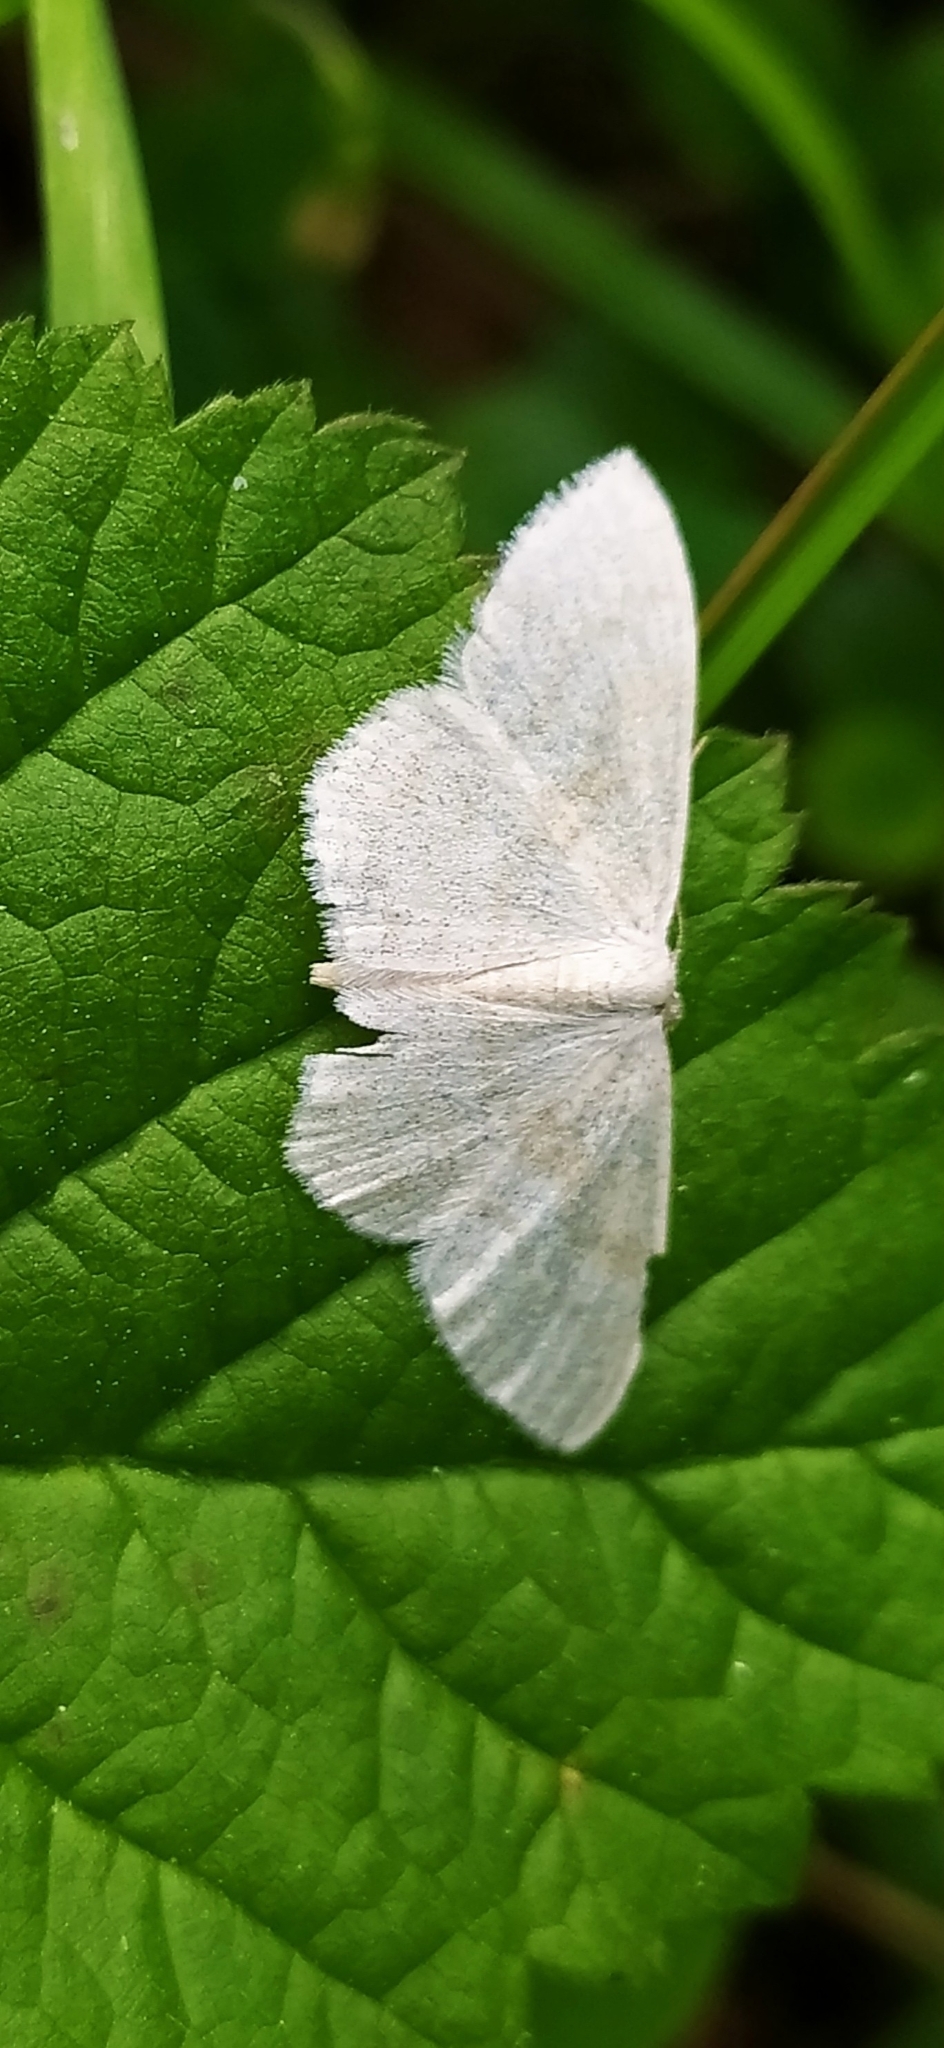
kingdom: Animalia
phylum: Arthropoda
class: Insecta
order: Lepidoptera
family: Geometridae
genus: Scopula
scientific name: Scopula floslactata
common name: Cream wave
